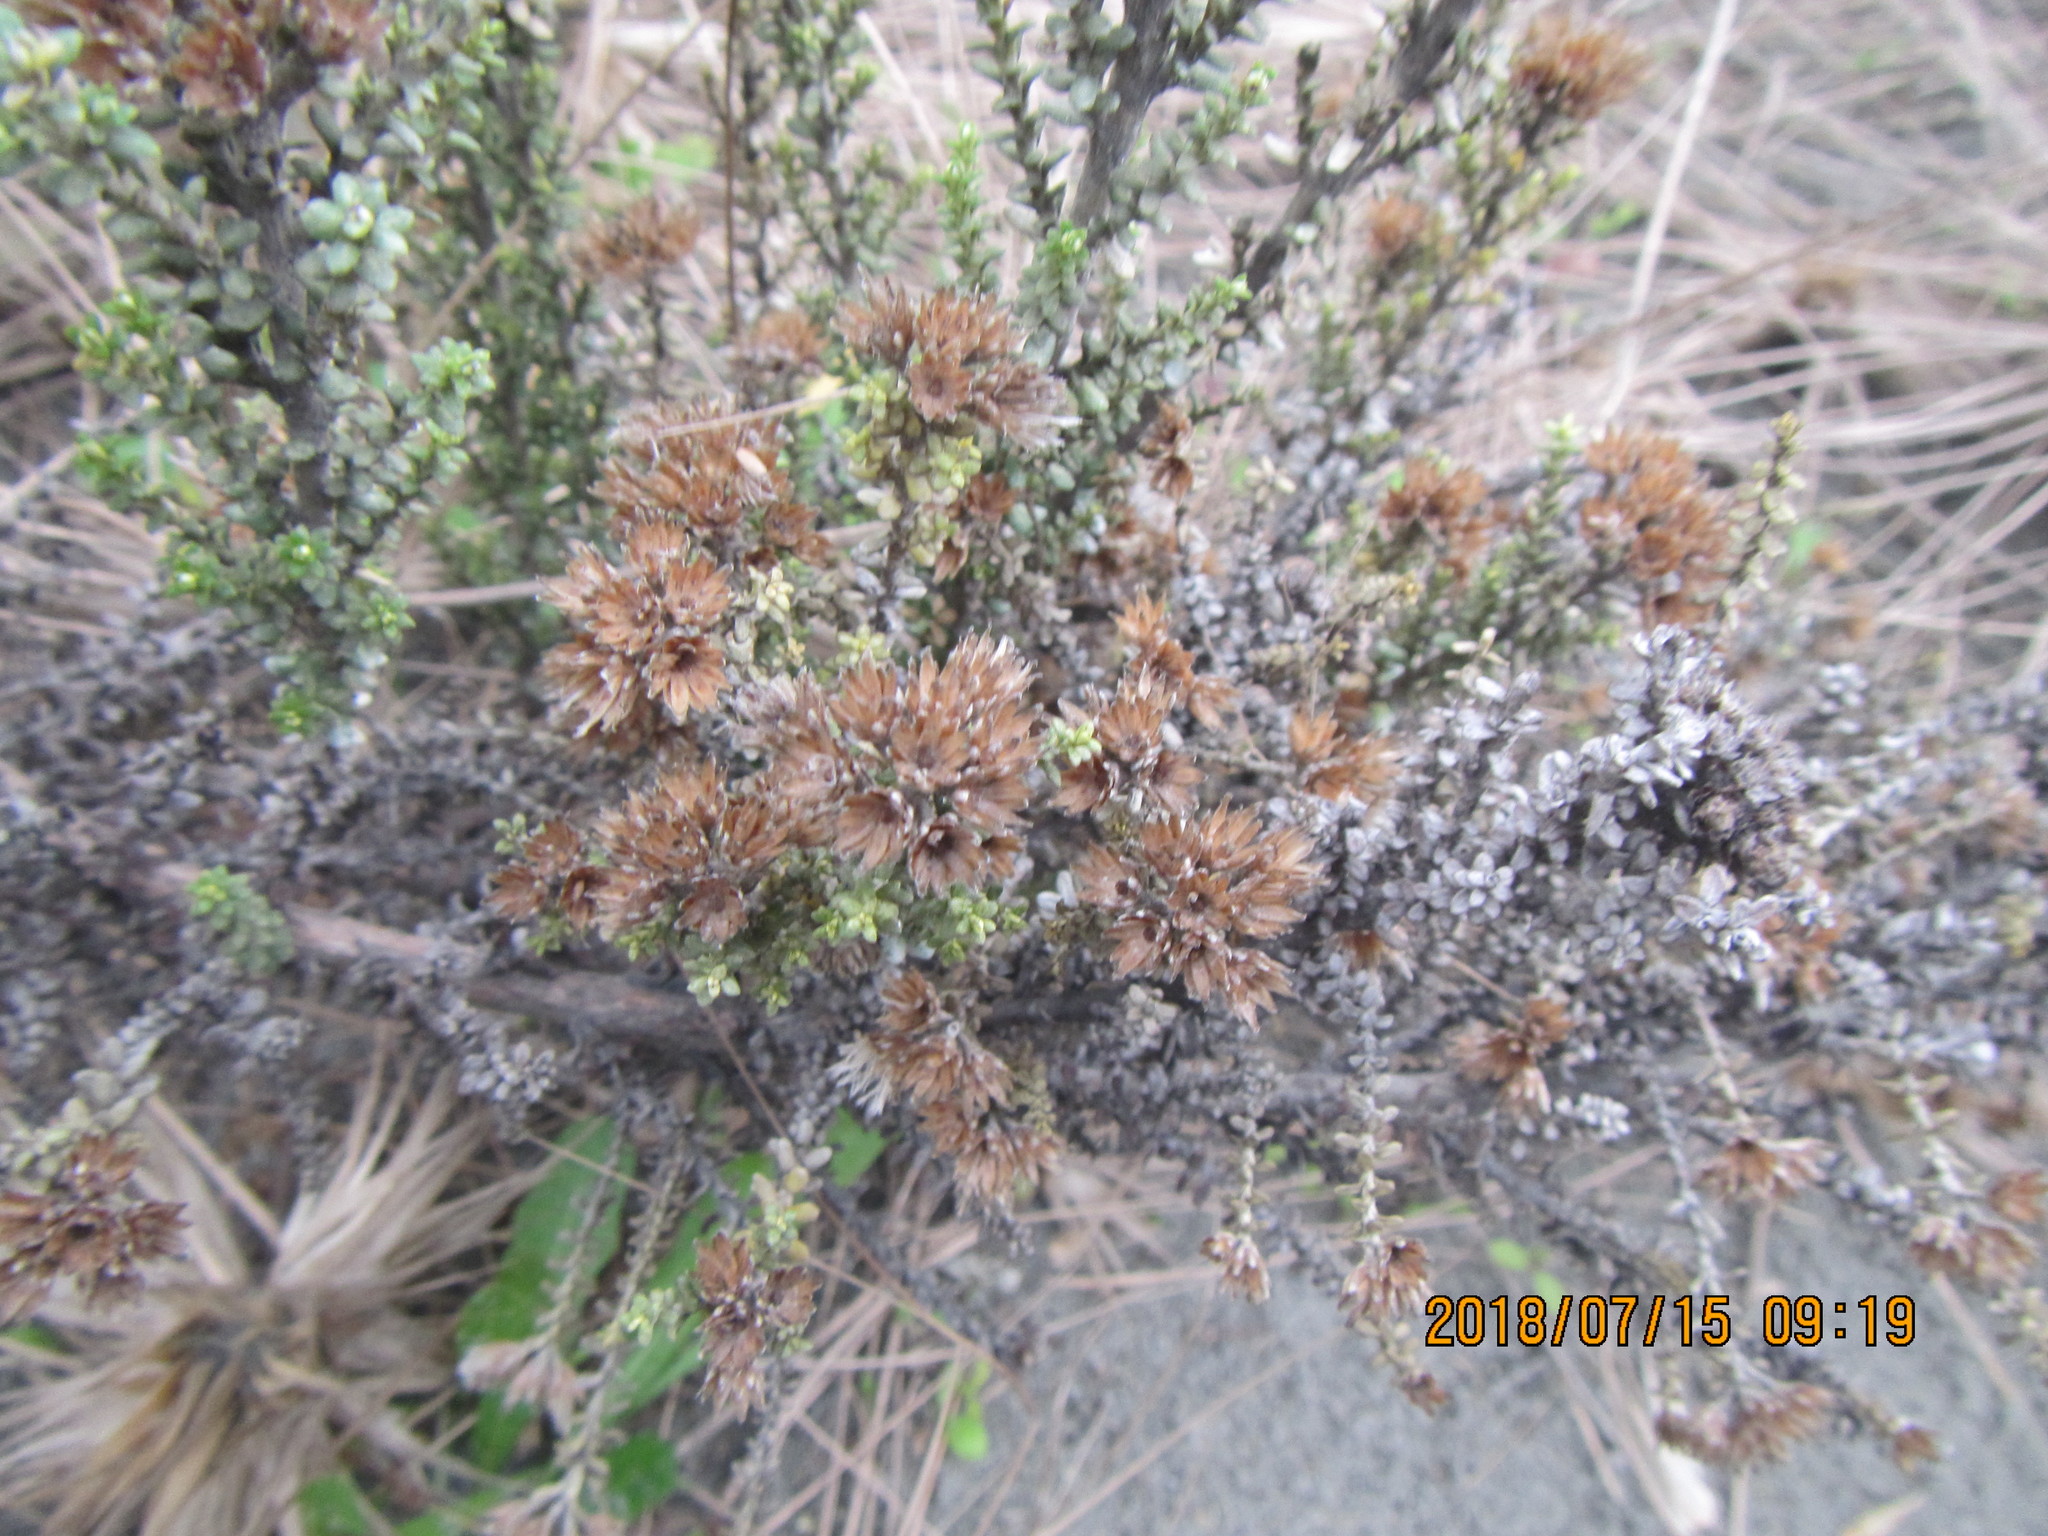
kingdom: Plantae
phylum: Tracheophyta
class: Magnoliopsida
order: Asterales
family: Asteraceae
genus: Ozothamnus
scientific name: Ozothamnus leptophyllus
